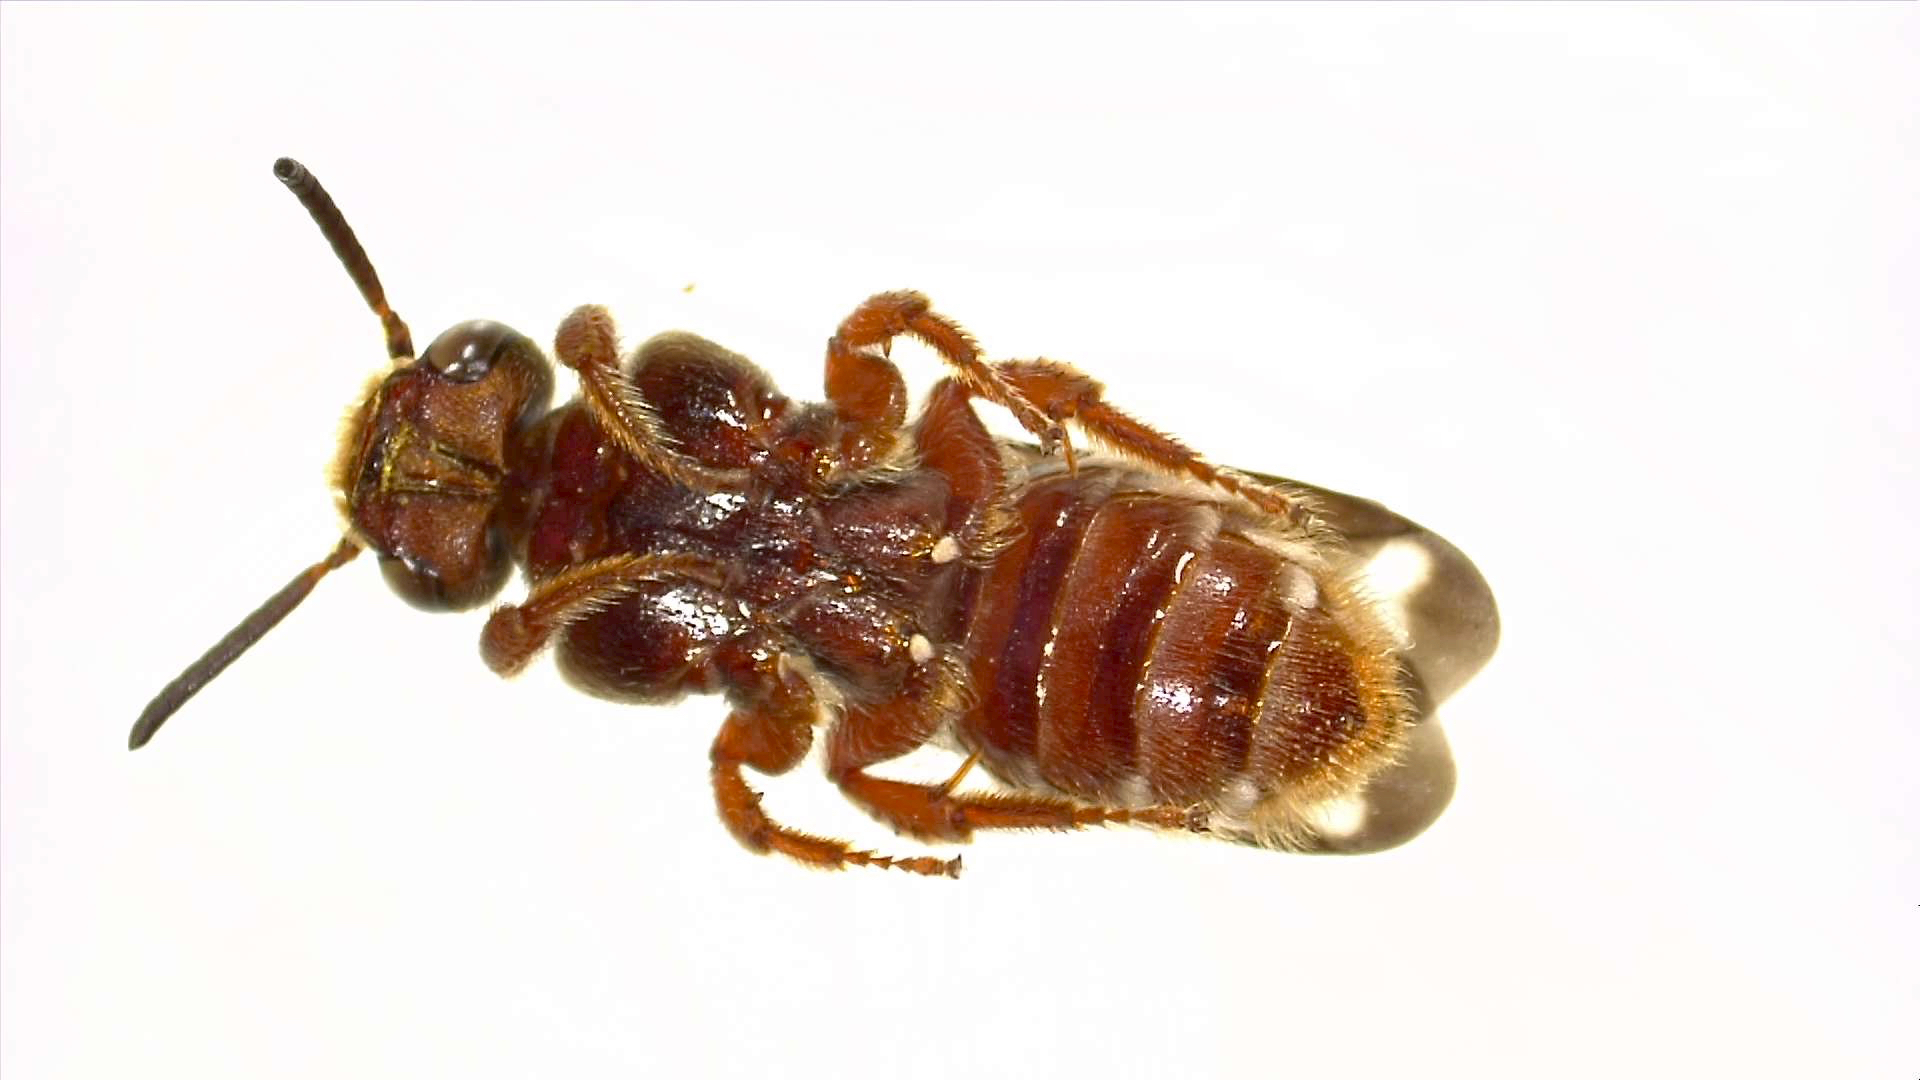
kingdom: Animalia
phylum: Arthropoda
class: Insecta
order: Hymenoptera
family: Apidae
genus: Paranomada
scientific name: Paranomada nitida
